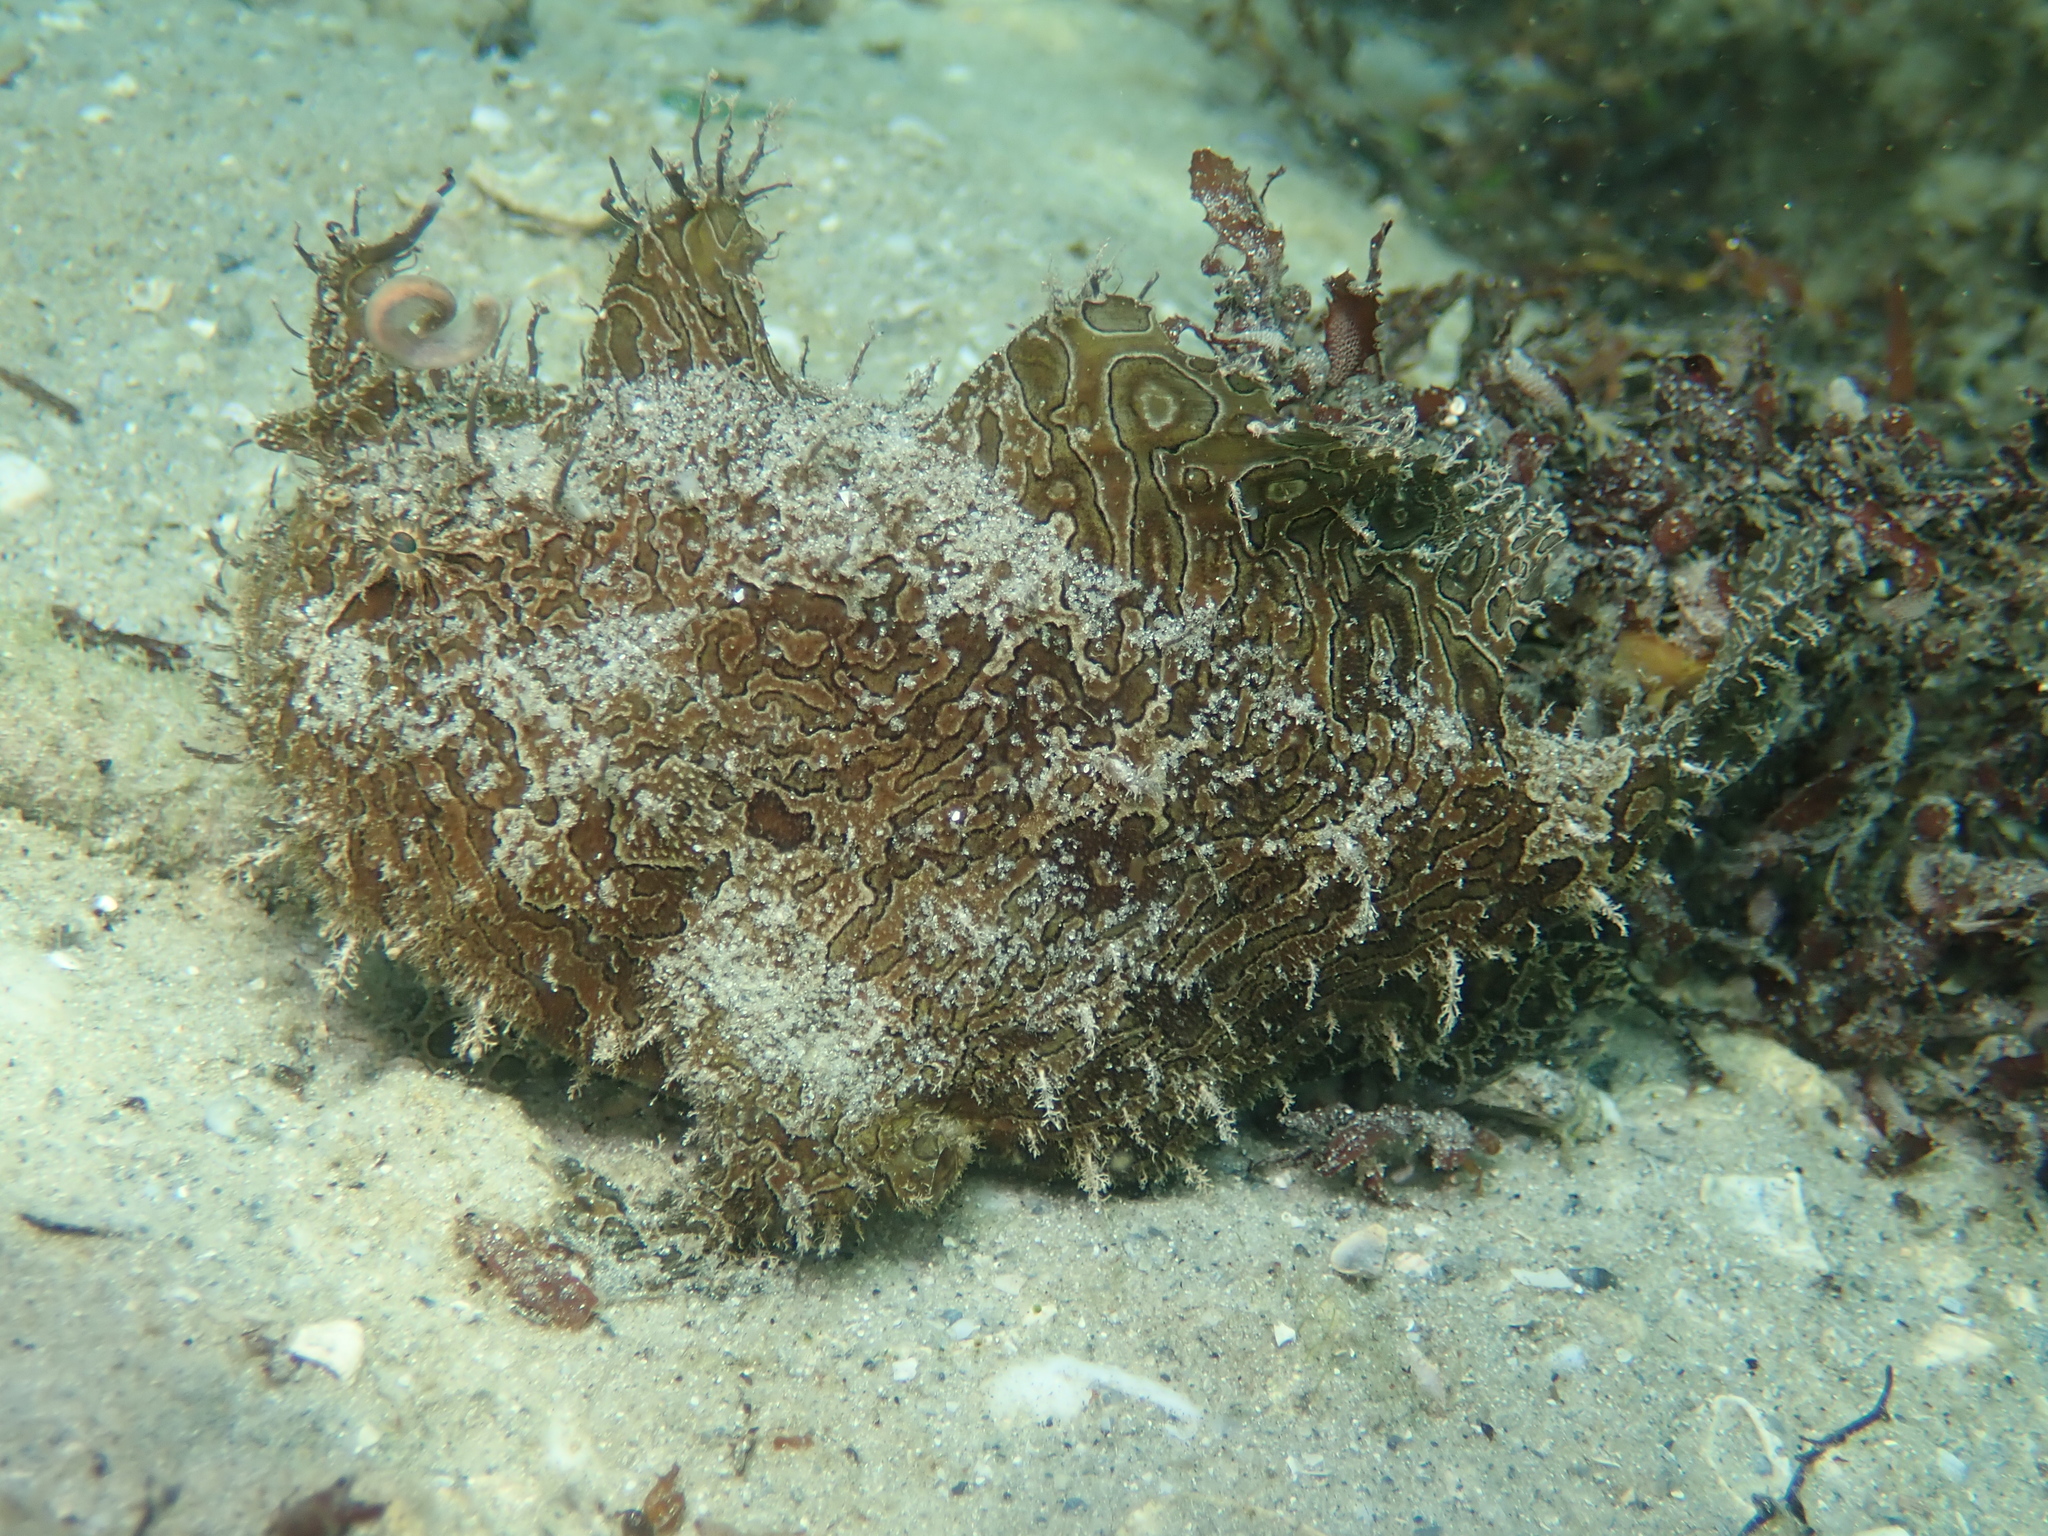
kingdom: Animalia
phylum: Chordata
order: Lophiiformes
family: Antennariidae
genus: Antennarius
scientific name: Antennarius striatus
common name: Striated frogfish
